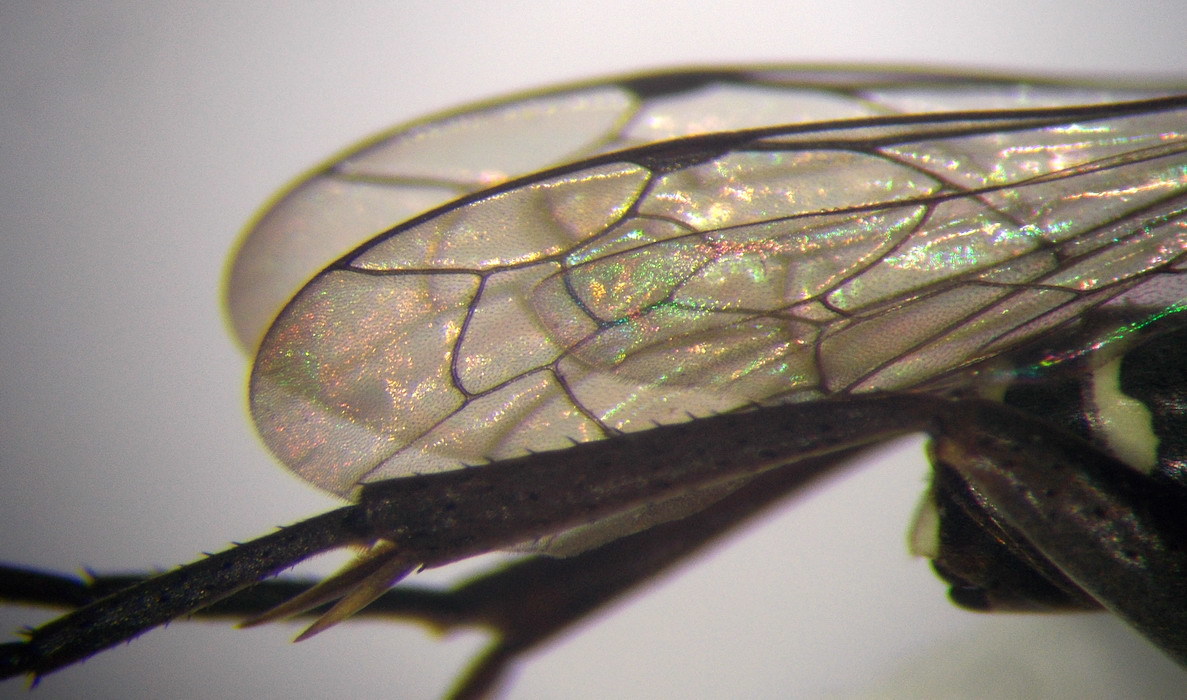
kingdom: Animalia
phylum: Arthropoda
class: Insecta
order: Hymenoptera
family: Pompilidae
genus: Ceropales
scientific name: Ceropales helvetica
